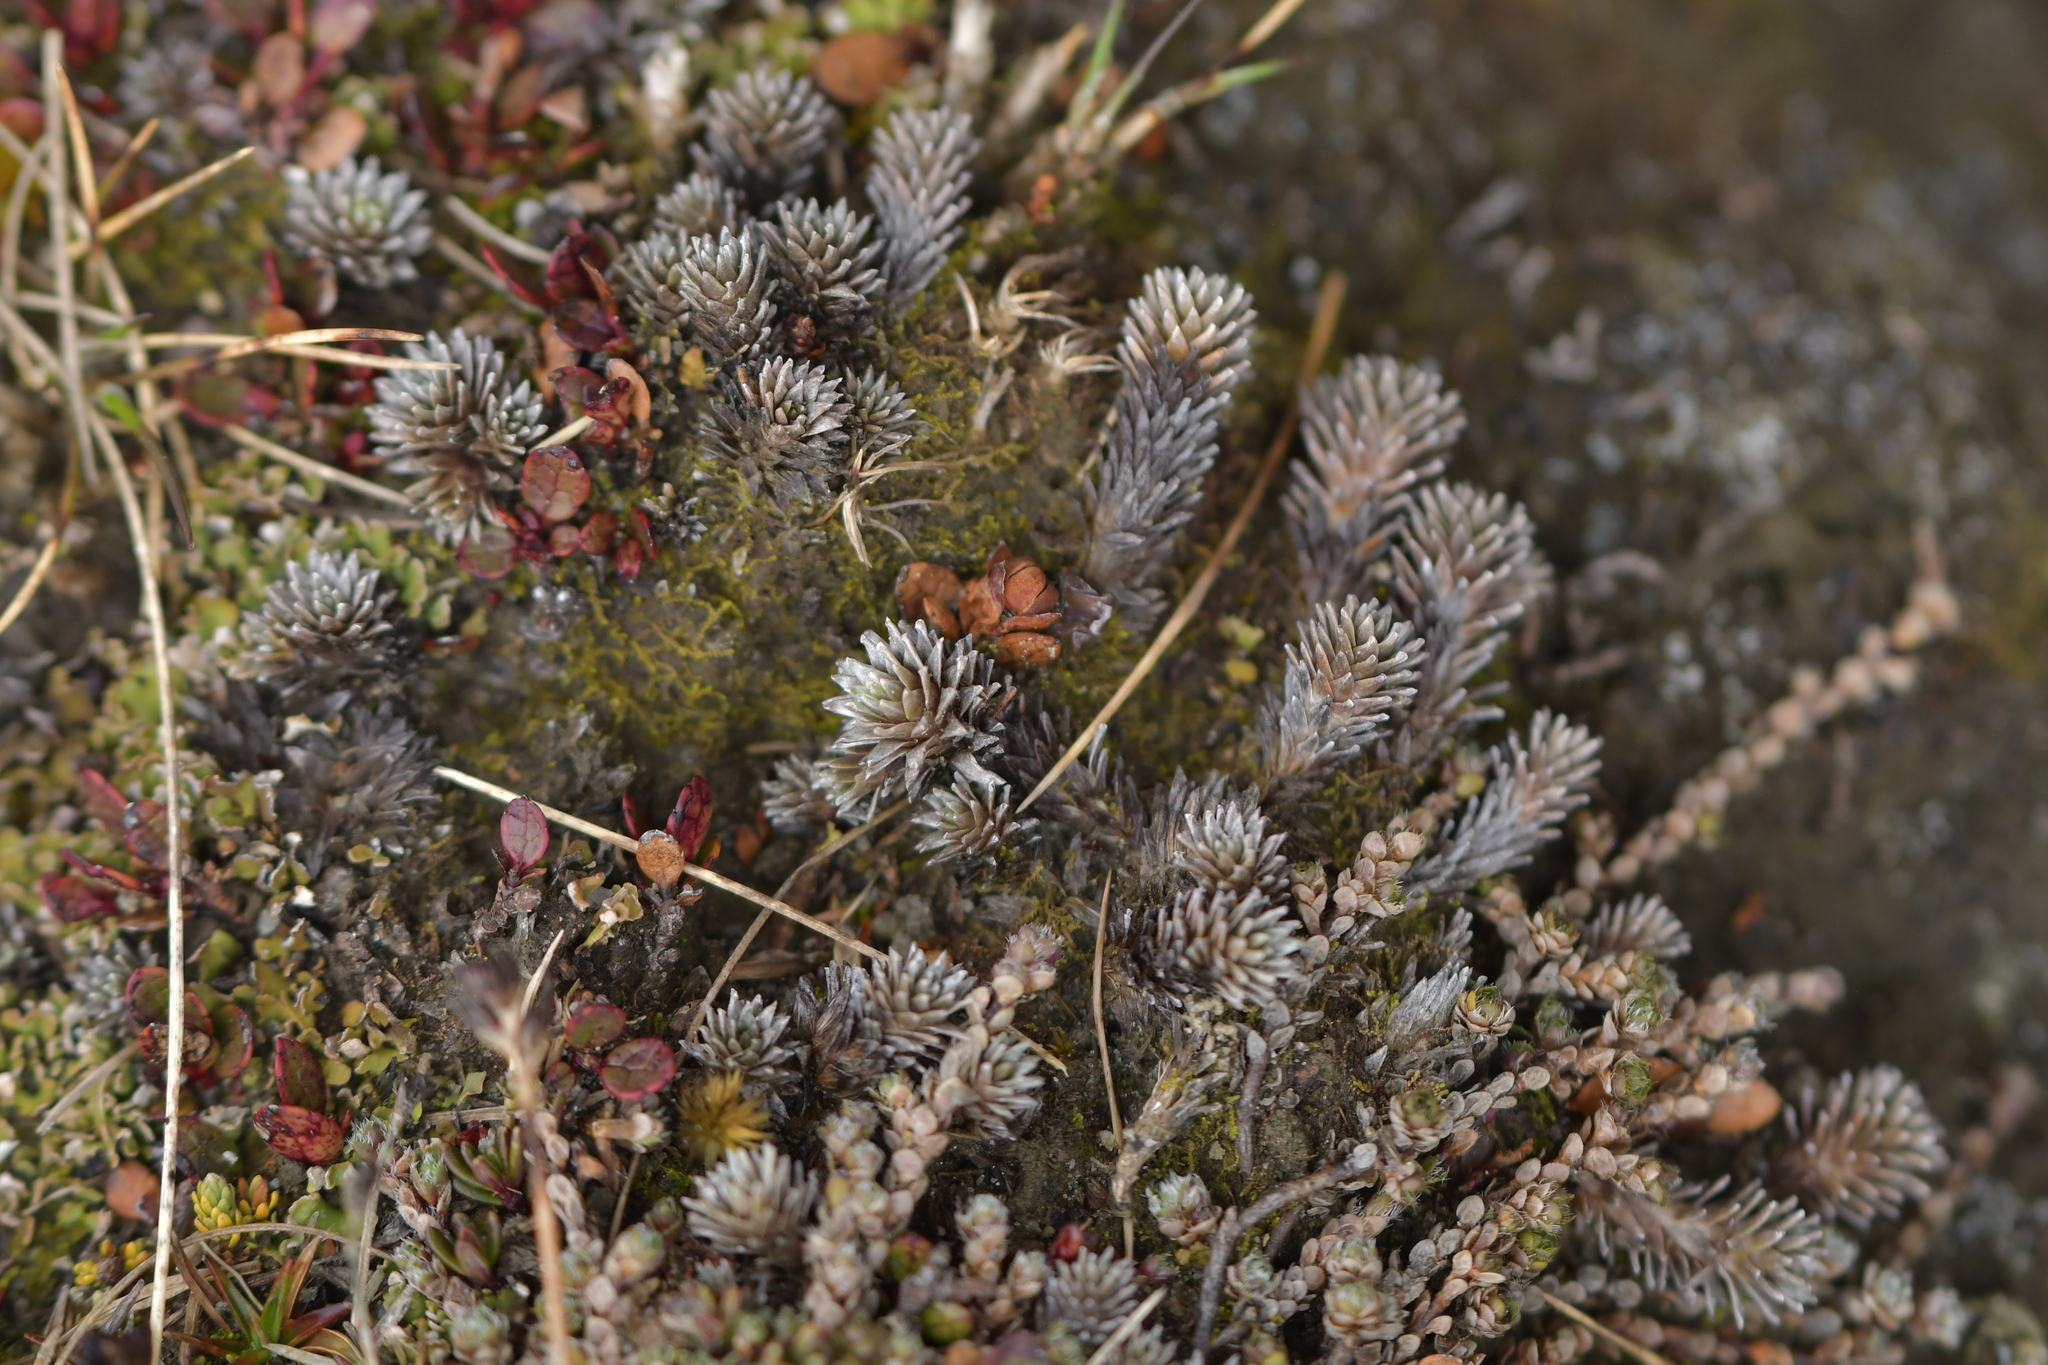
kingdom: Plantae
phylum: Tracheophyta
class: Magnoliopsida
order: Asterales
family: Asteraceae
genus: Raoulia
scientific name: Raoulia grandiflora
